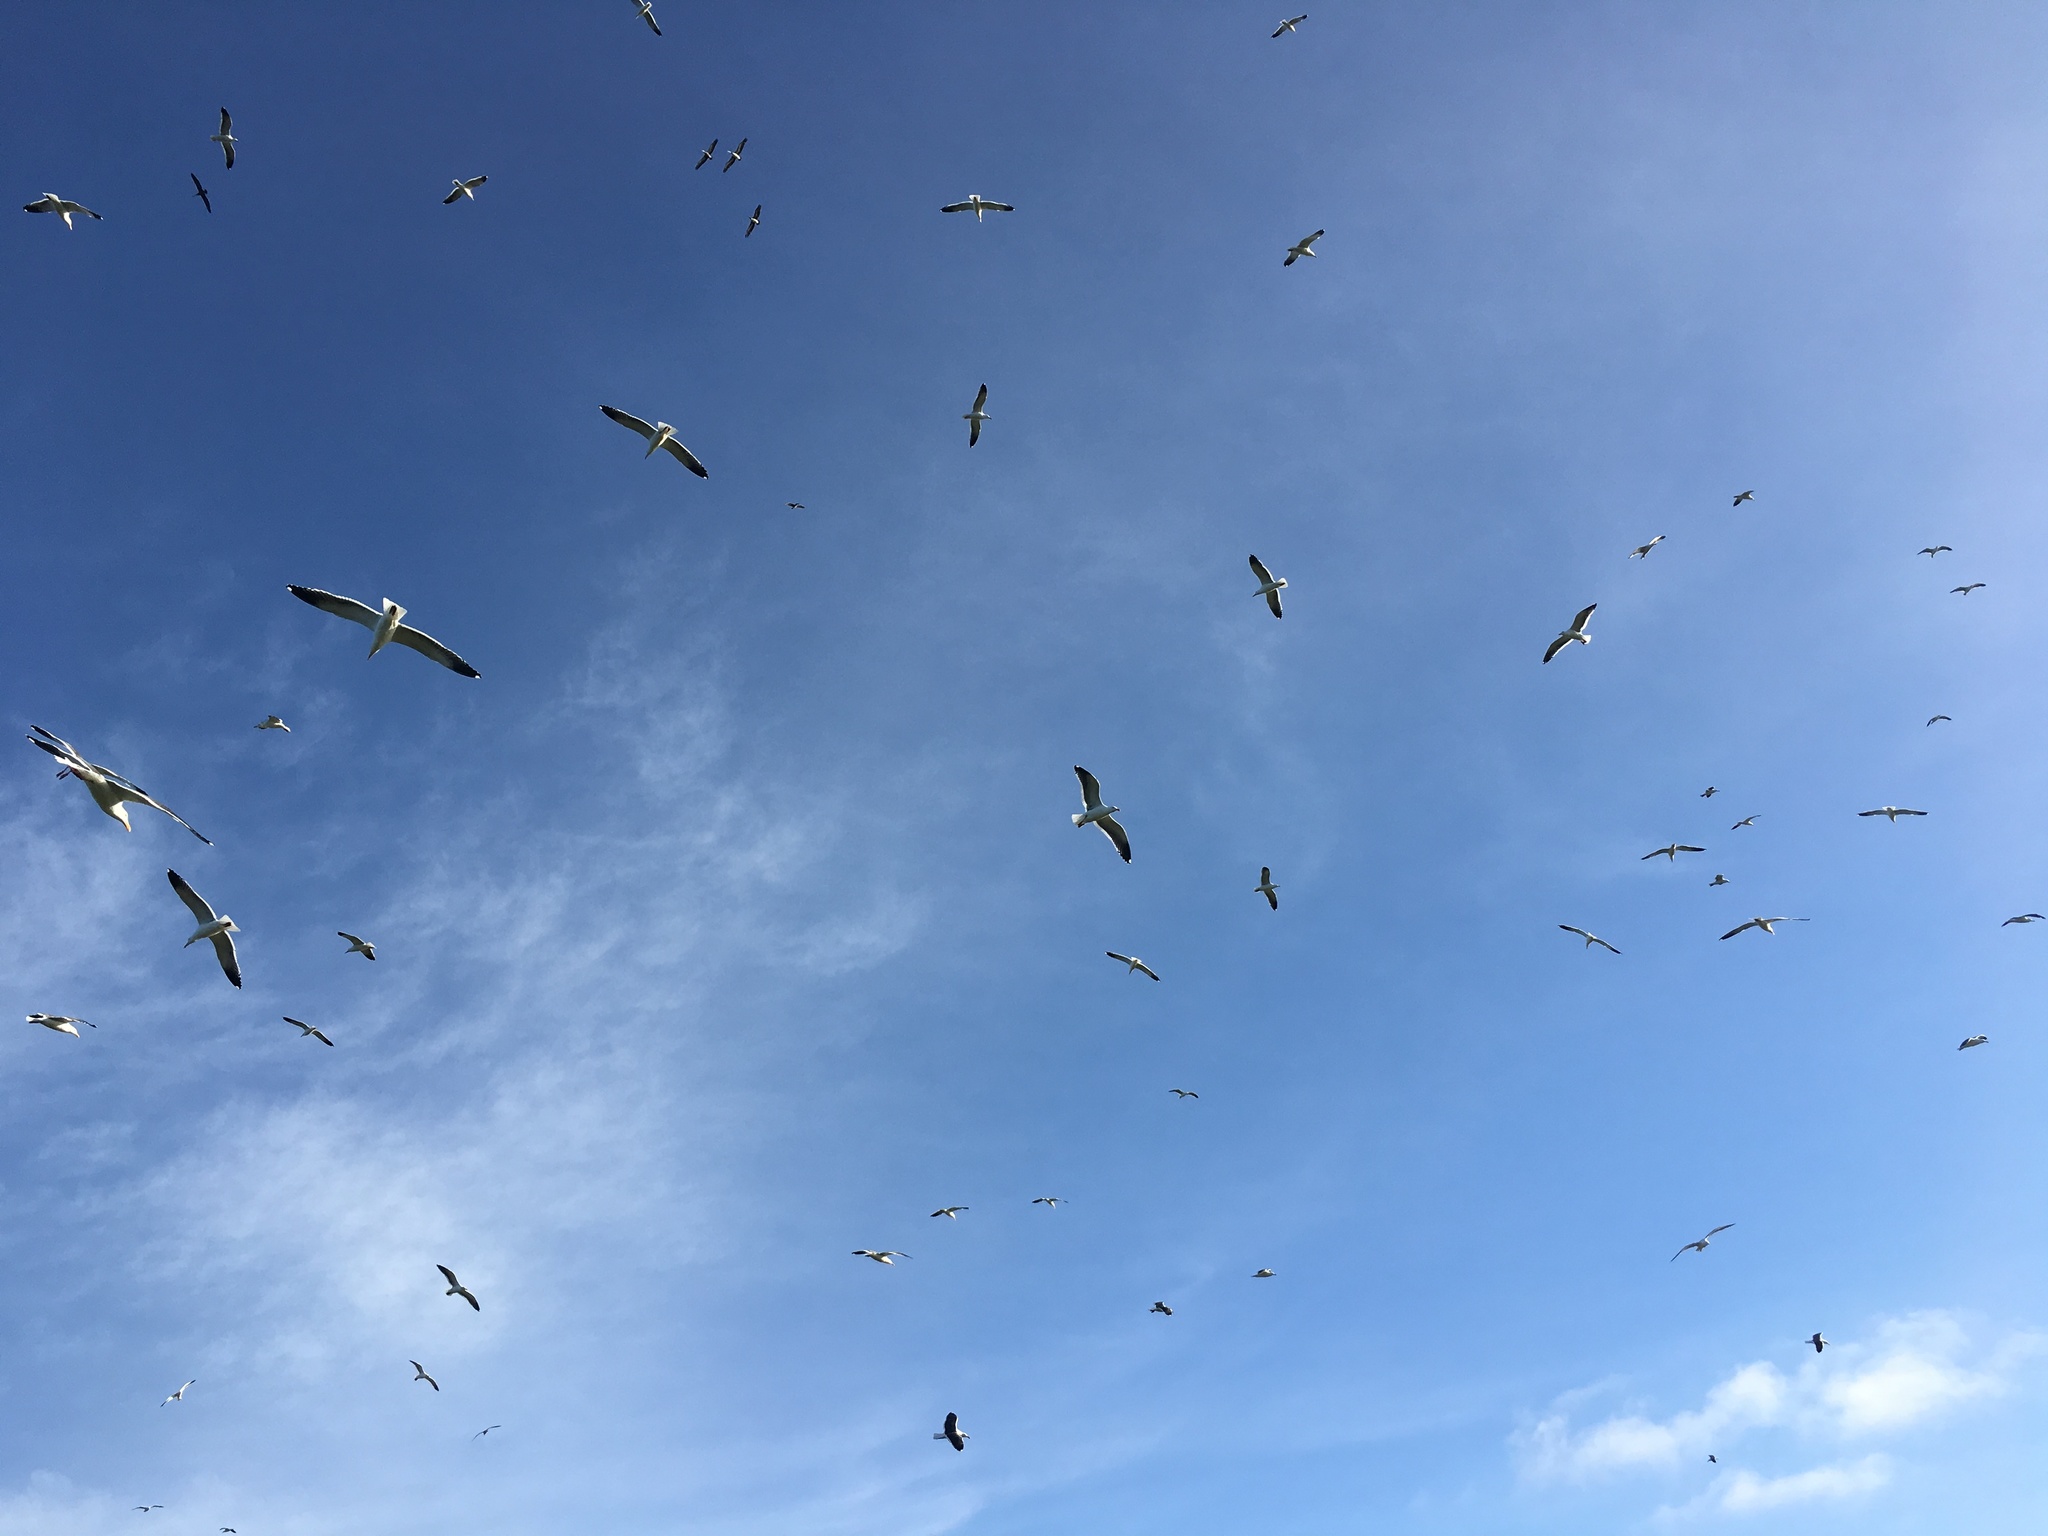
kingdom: Animalia
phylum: Chordata
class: Aves
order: Charadriiformes
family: Laridae
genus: Larus
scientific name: Larus occidentalis
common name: Western gull
